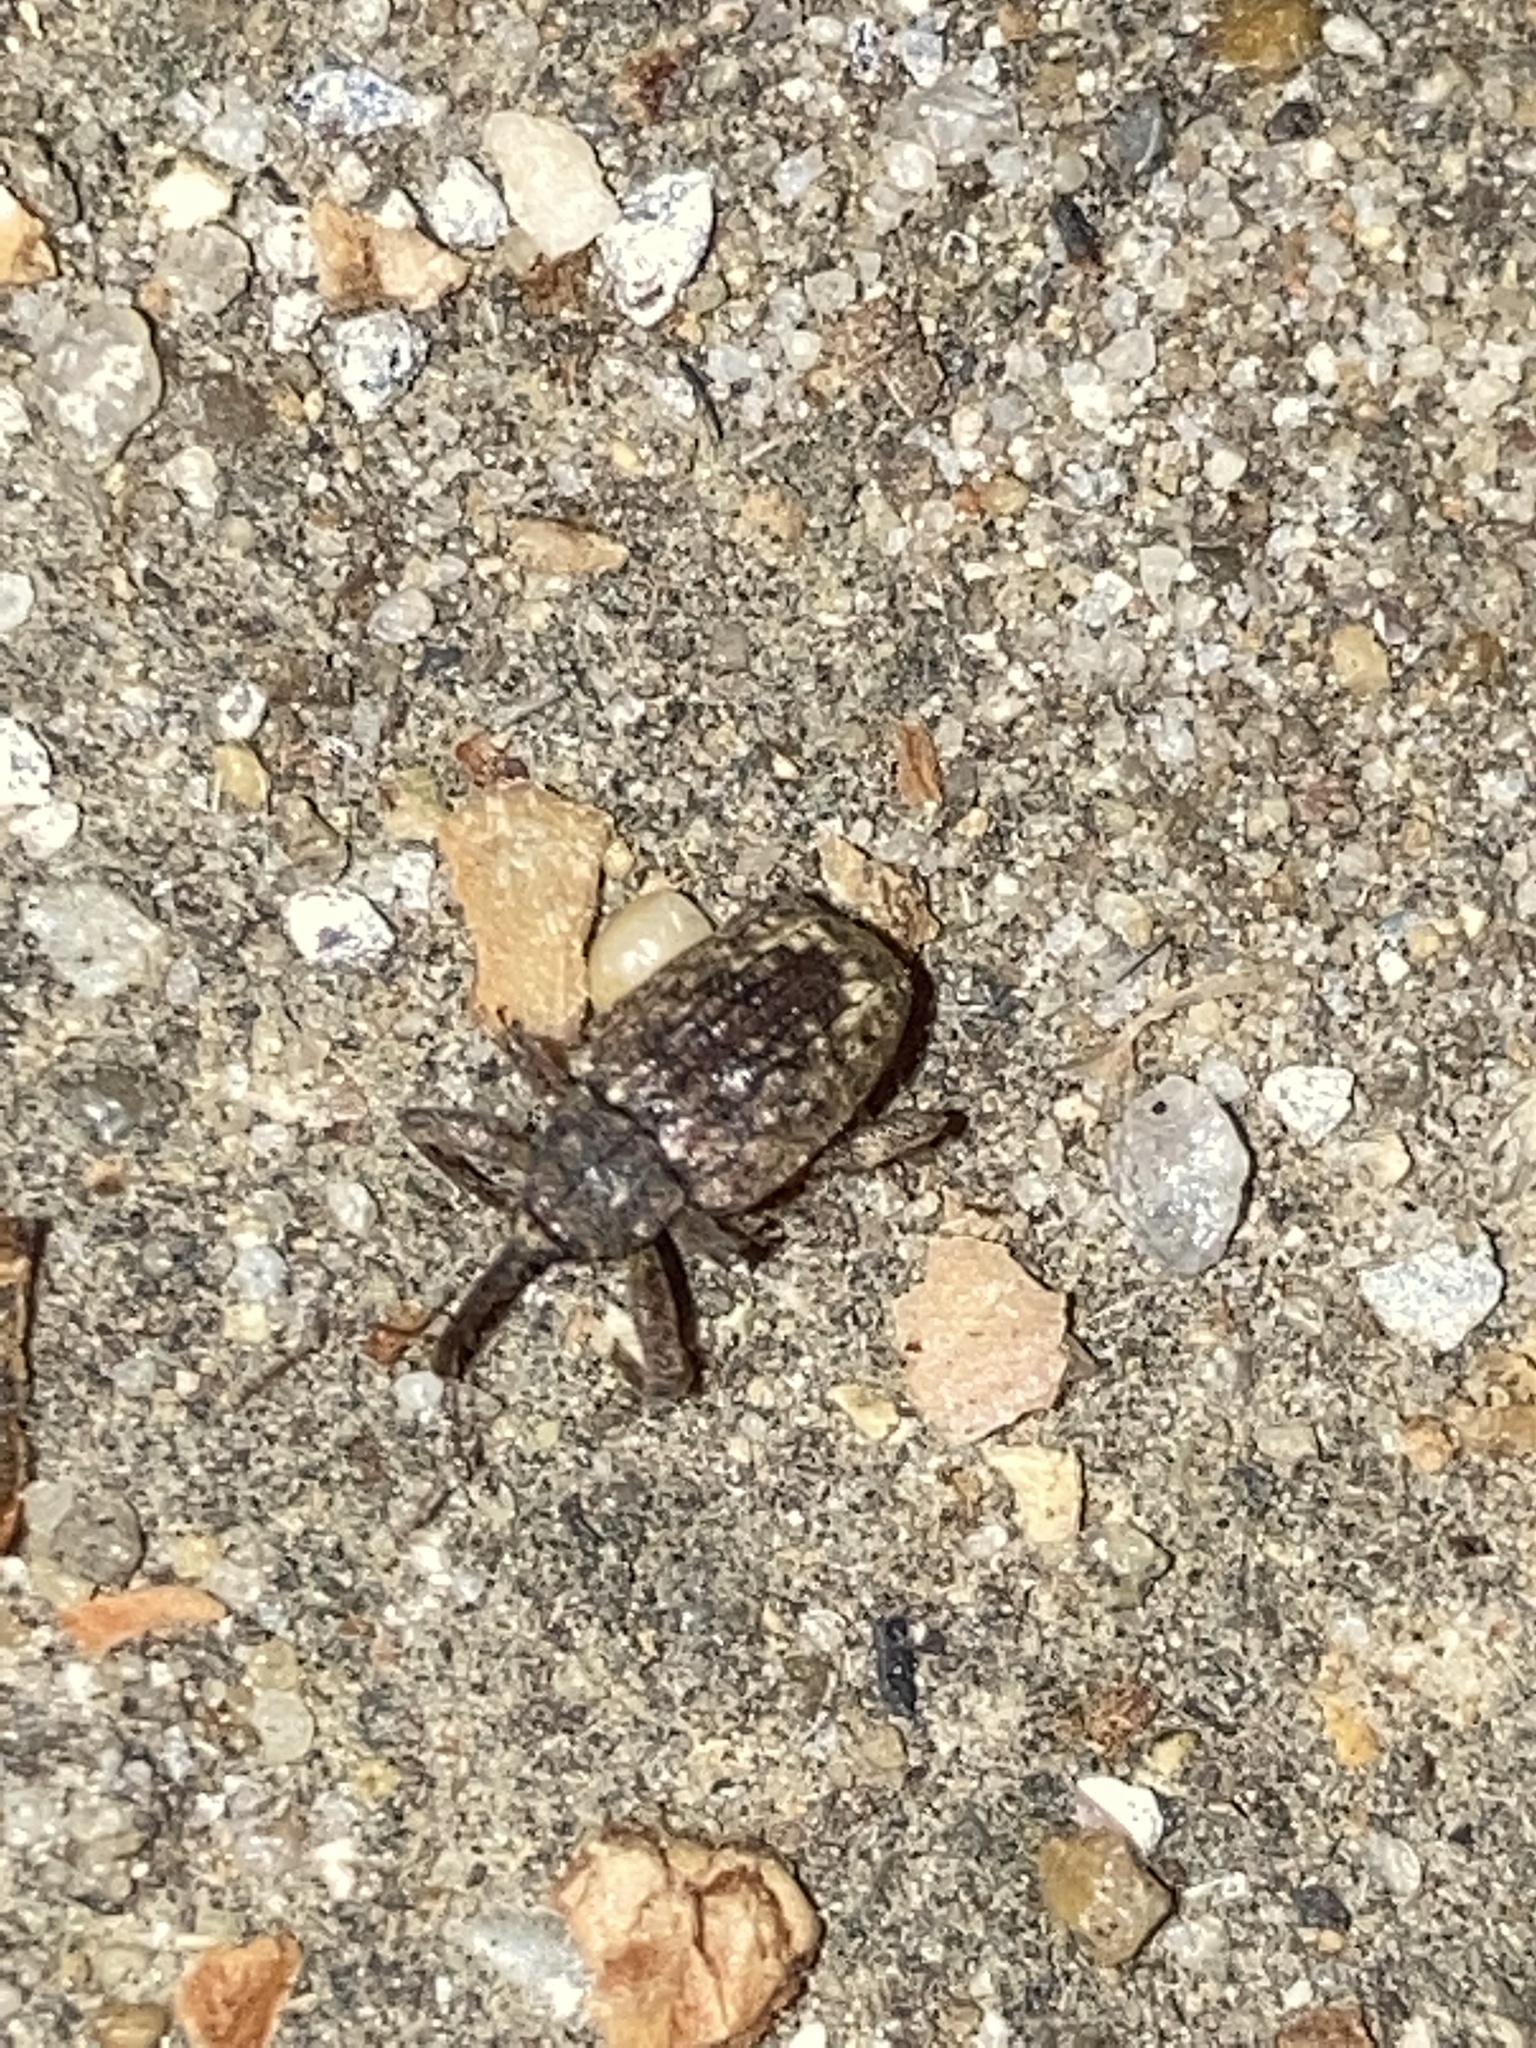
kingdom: Animalia
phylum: Arthropoda
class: Insecta
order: Coleoptera
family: Curculionidae
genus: Conotrachelus
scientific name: Conotrachelus naso
